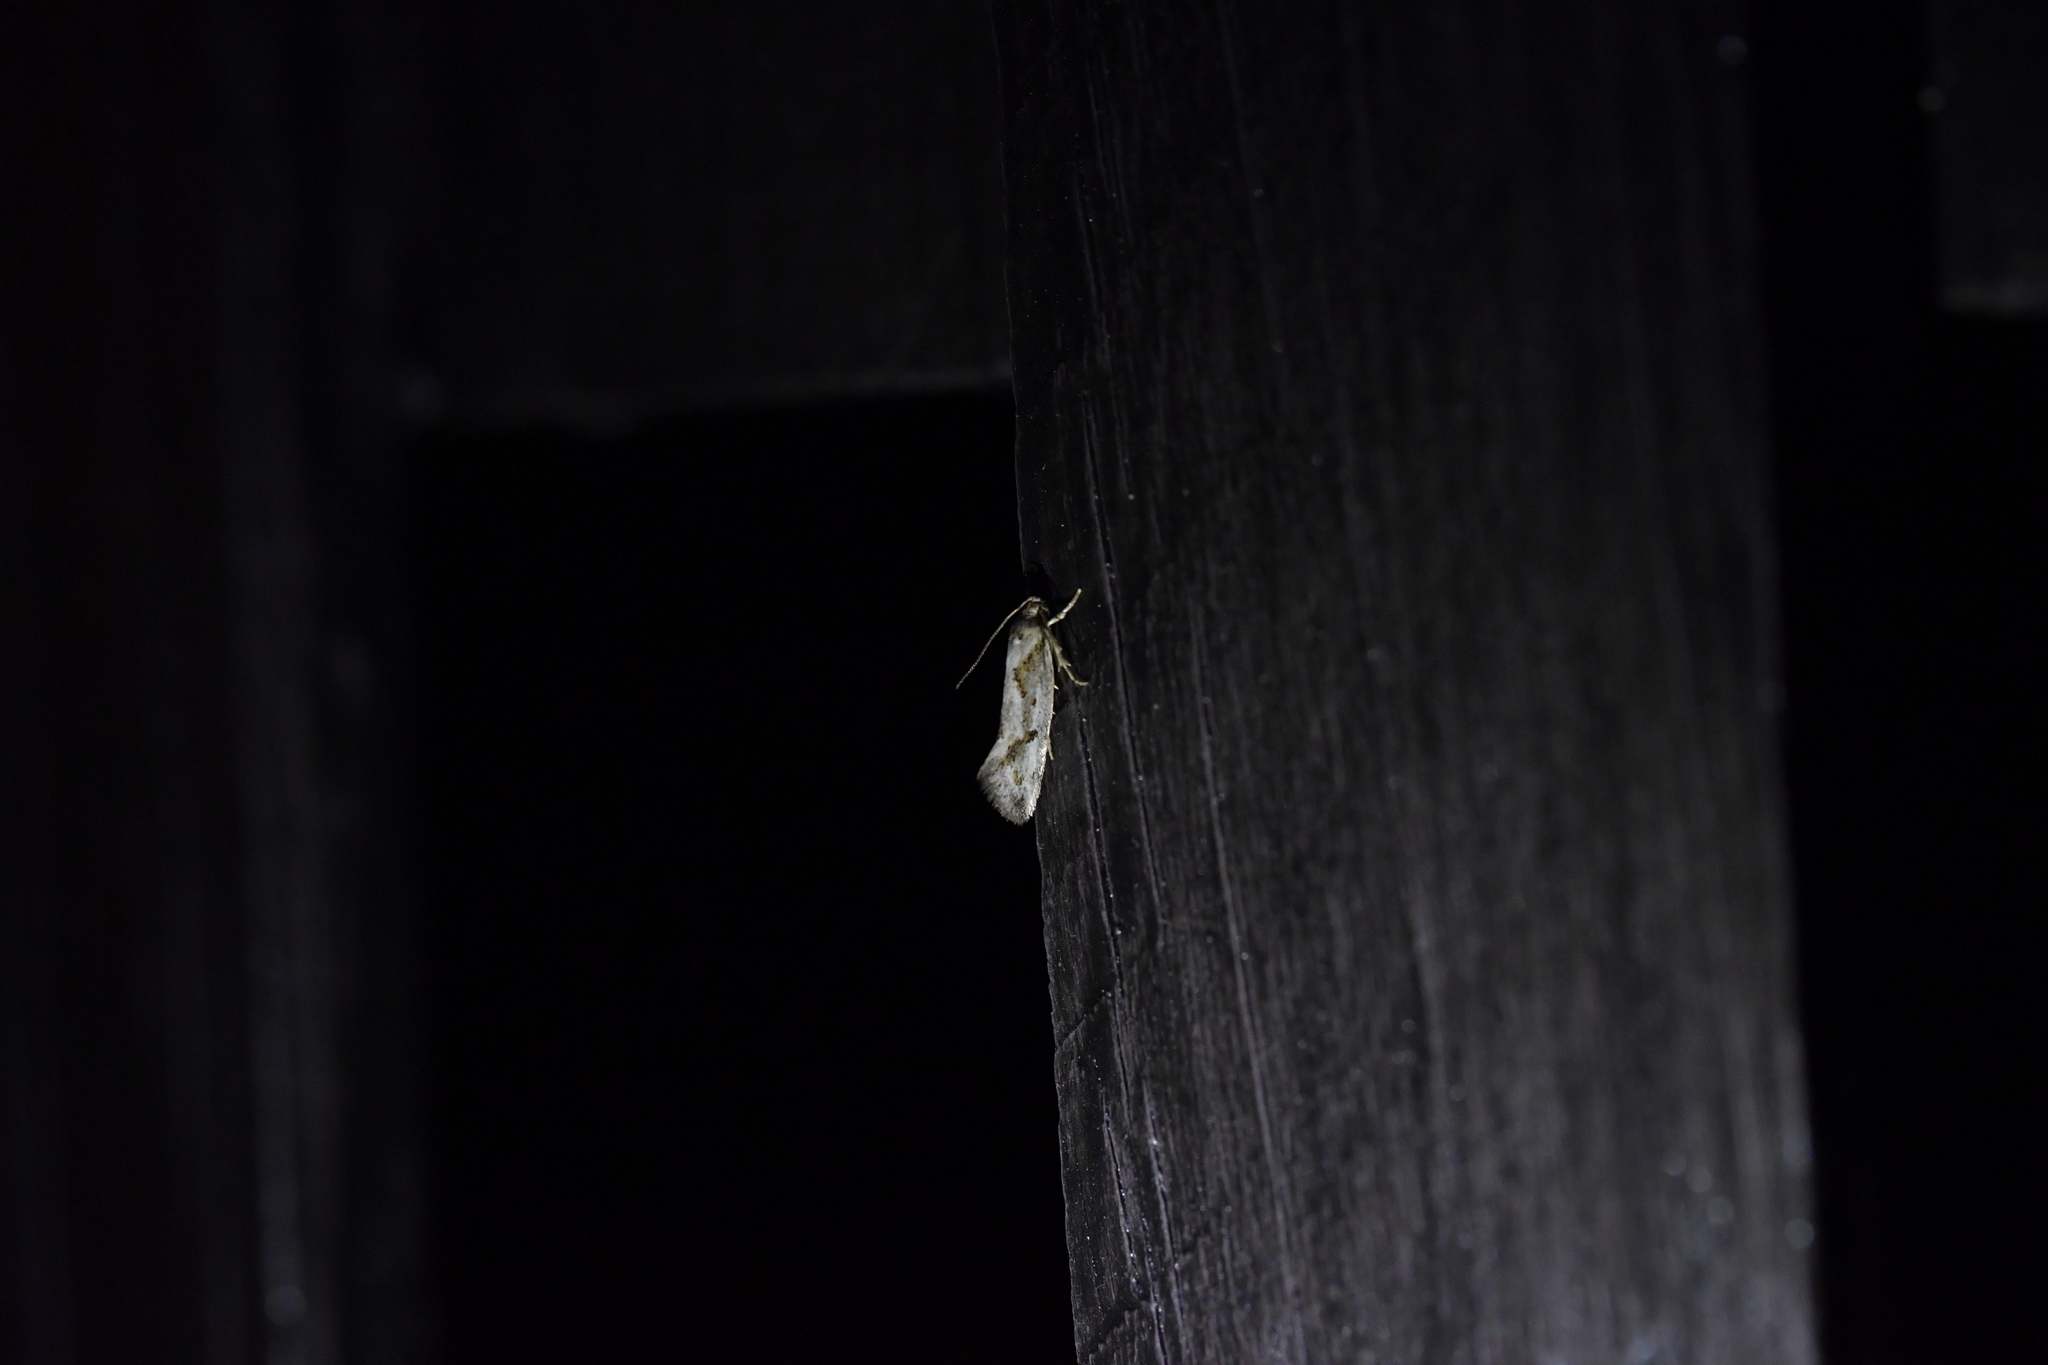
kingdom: Animalia
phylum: Arthropoda
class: Insecta
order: Lepidoptera
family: Oecophoridae
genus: Tingena
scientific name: Tingena hemimochla
